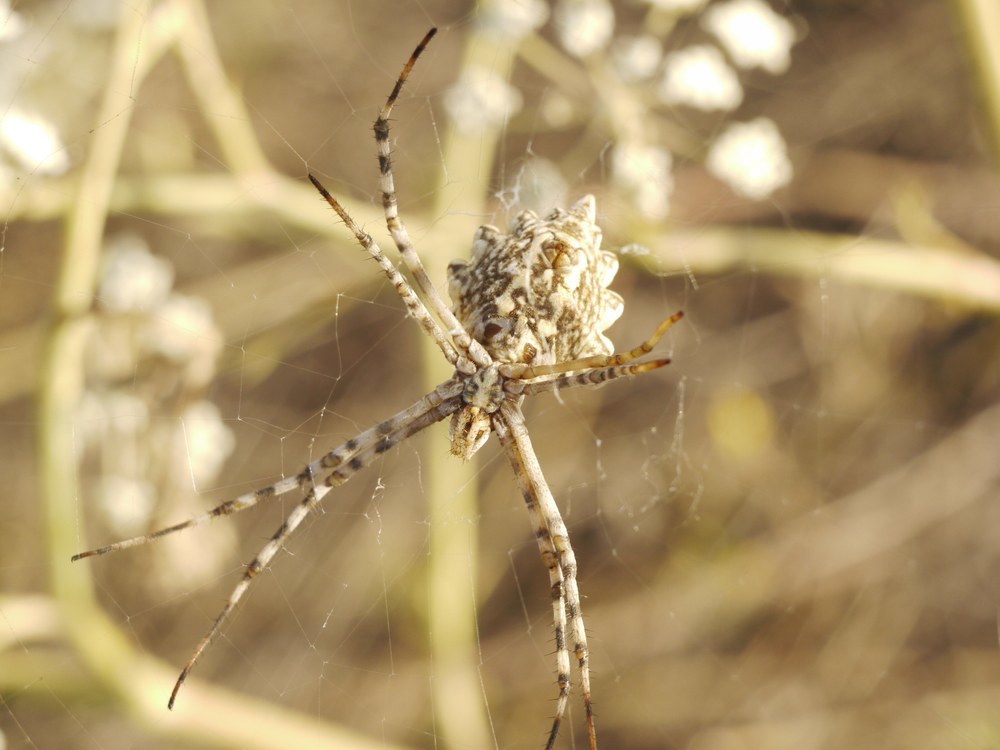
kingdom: Animalia
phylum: Arthropoda
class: Arachnida
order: Araneae
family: Araneidae
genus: Argiope
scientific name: Argiope lobata
